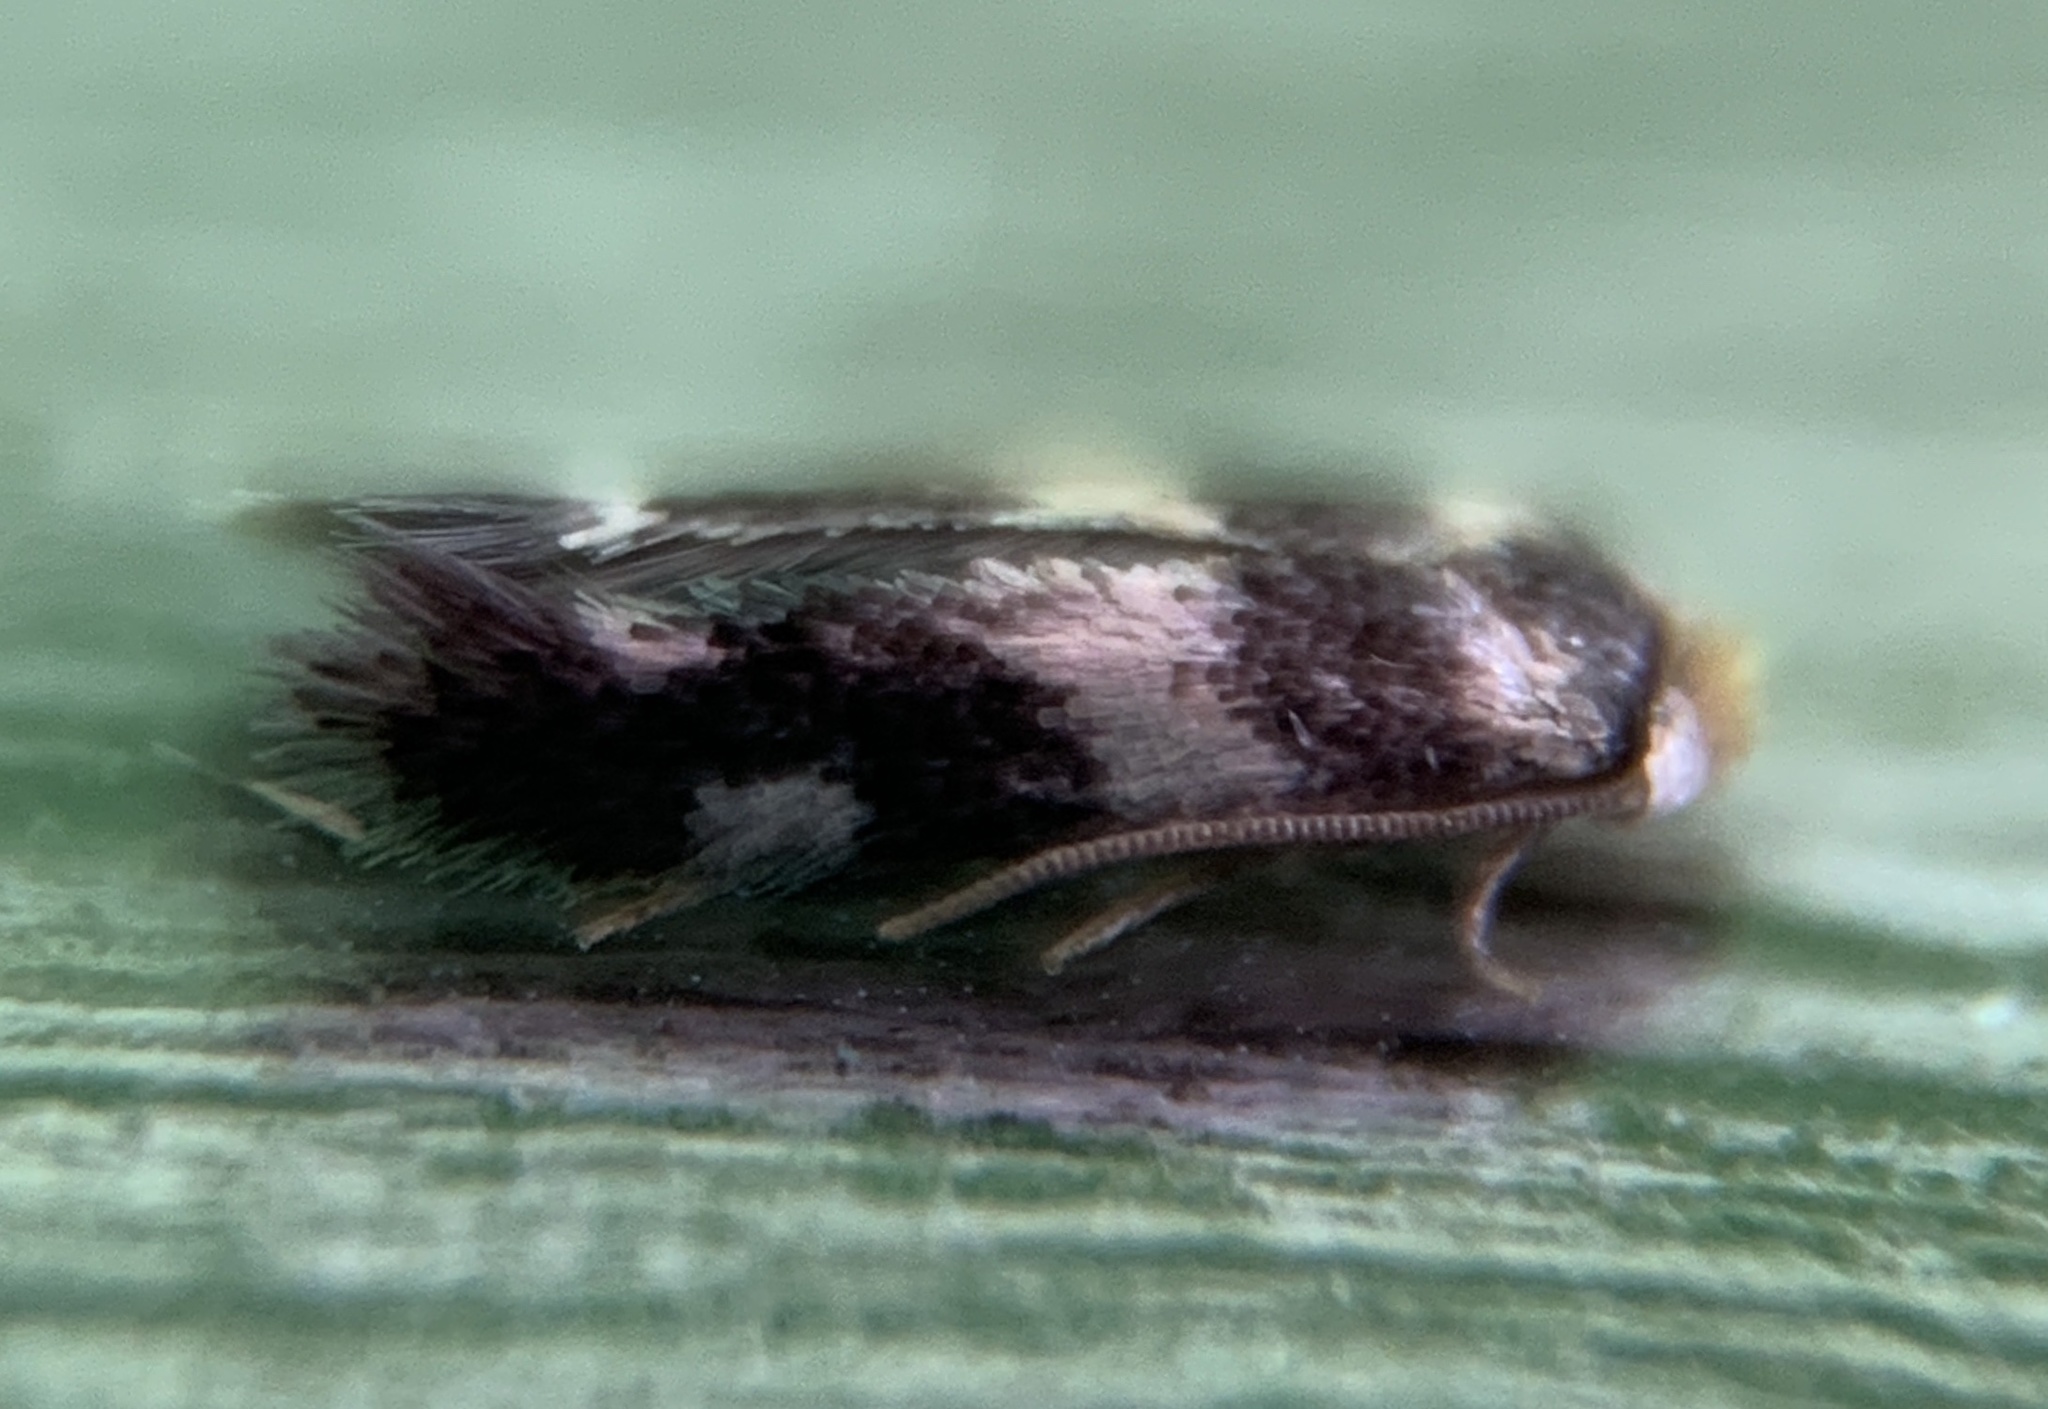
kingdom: Animalia
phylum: Arthropoda
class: Insecta
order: Lepidoptera
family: Nepticulidae
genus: Etainia
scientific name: Etainia sericopeza
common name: Leafminer
